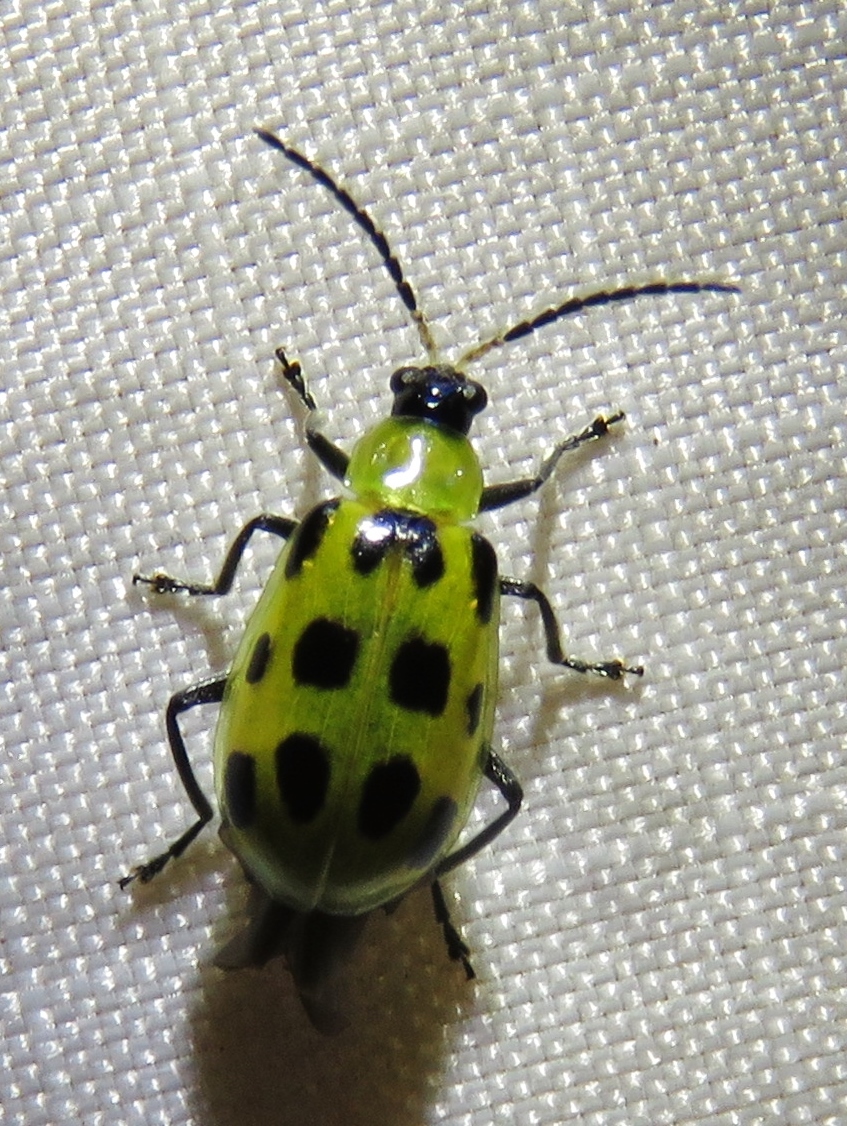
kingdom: Animalia
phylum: Arthropoda
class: Insecta
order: Coleoptera
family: Chrysomelidae
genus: Diabrotica
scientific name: Diabrotica undecimpunctata
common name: Spotted cucumber beetle
